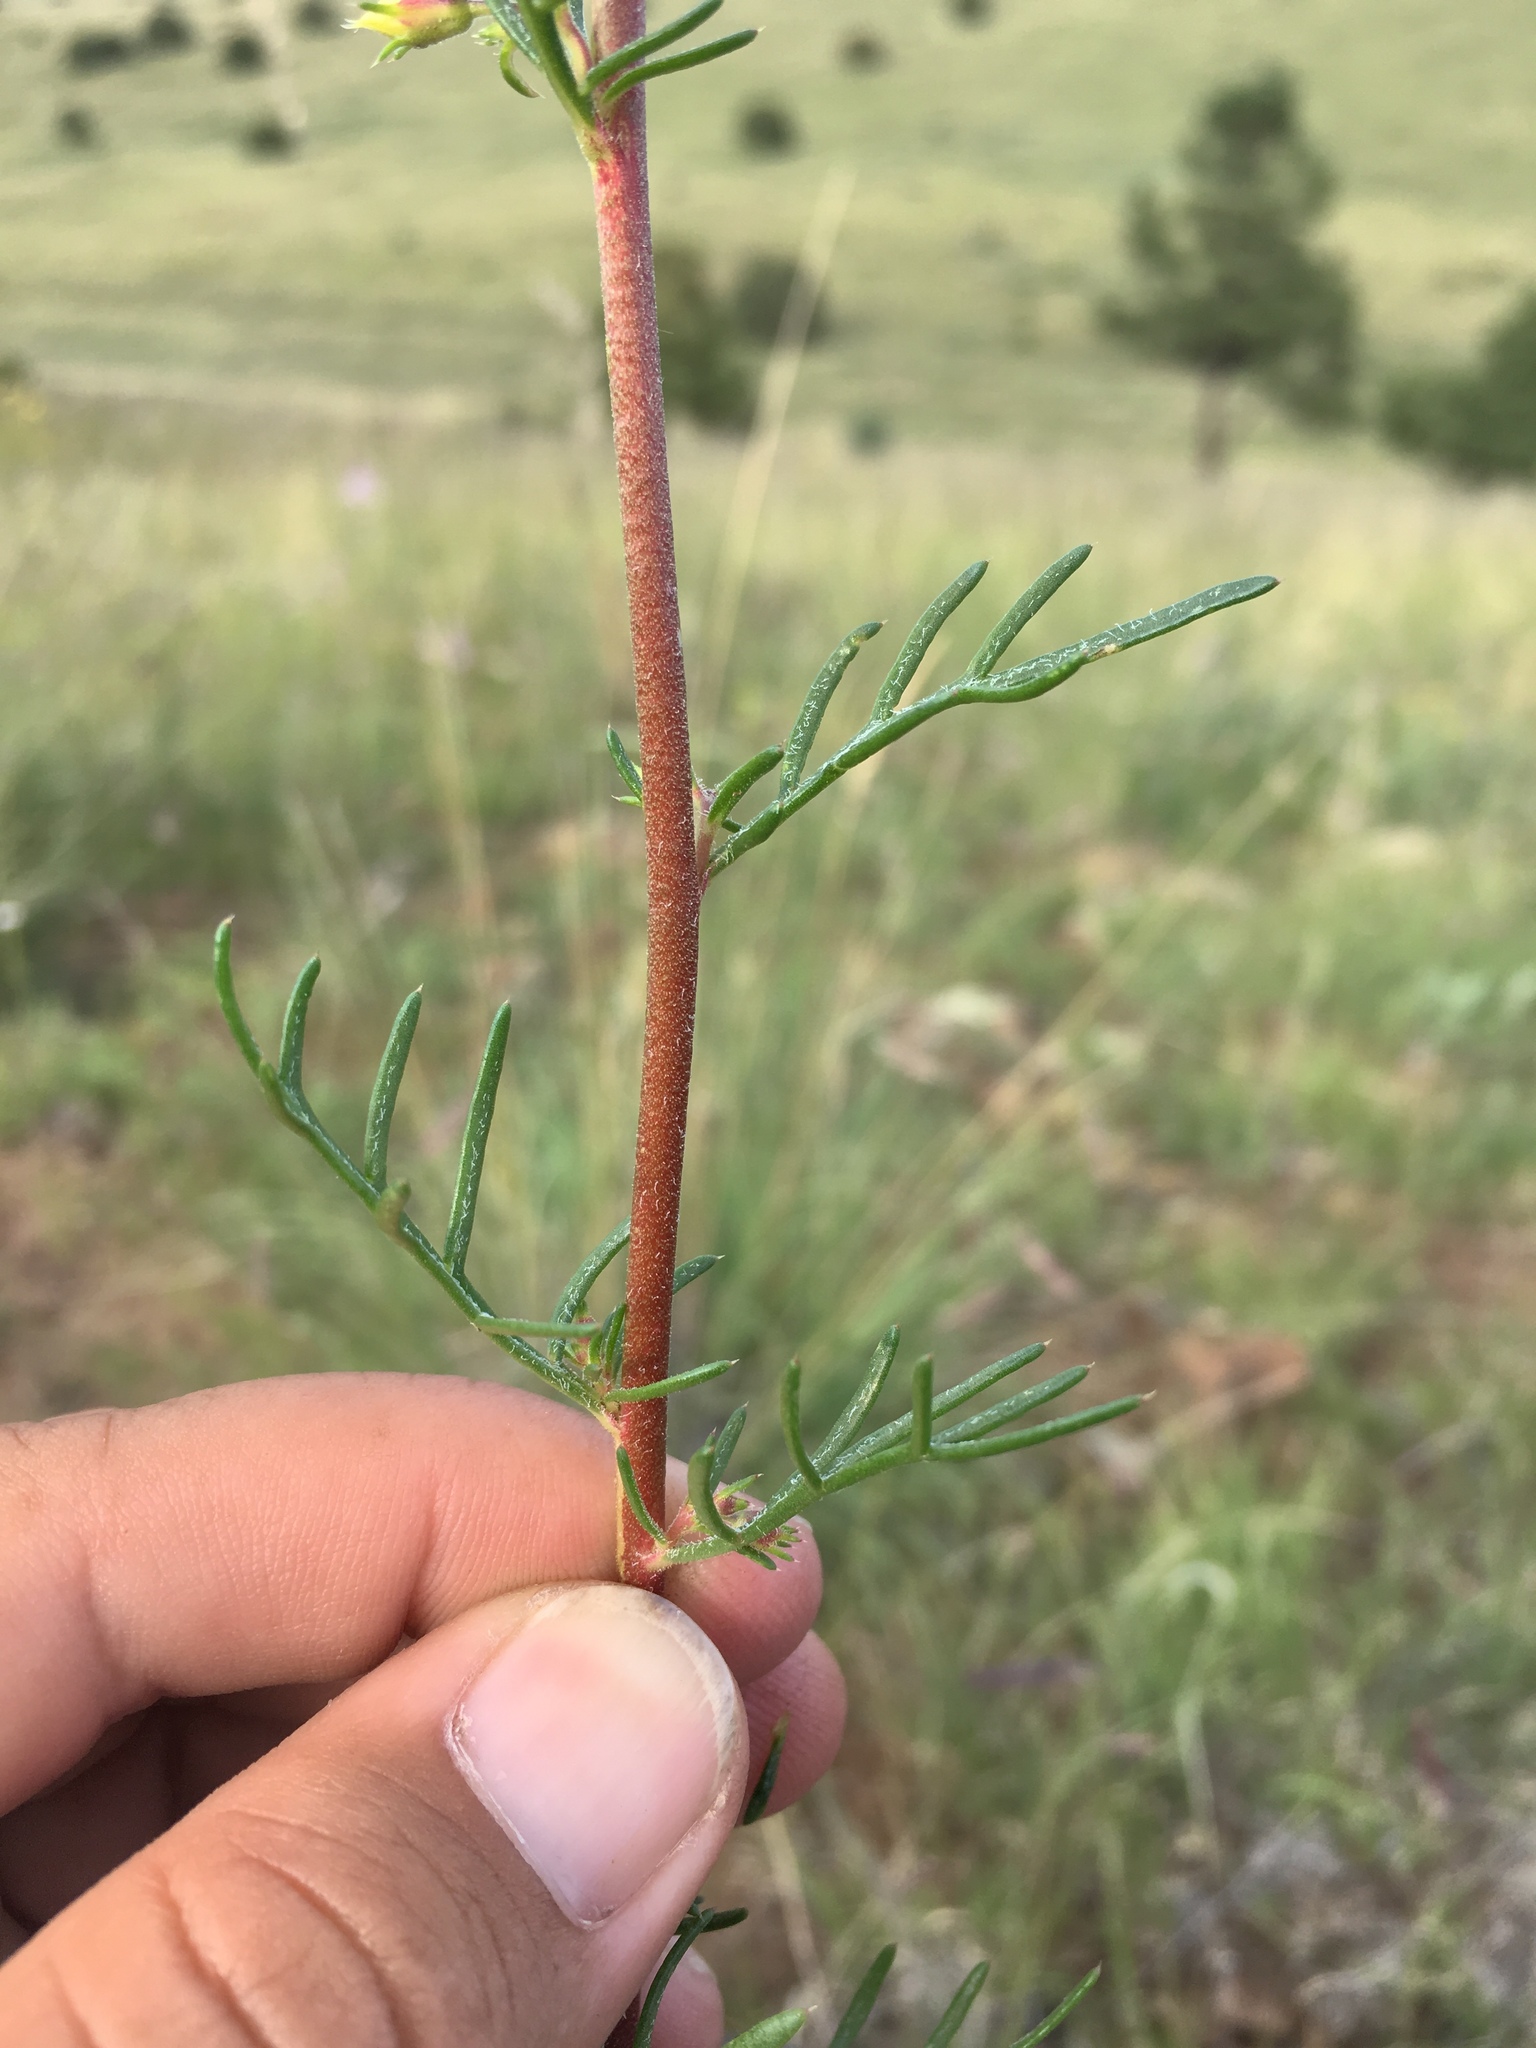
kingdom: Plantae
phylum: Tracheophyta
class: Magnoliopsida
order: Ericales
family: Polemoniaceae
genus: Ipomopsis
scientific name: Ipomopsis aggregata
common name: Scarlet gilia
